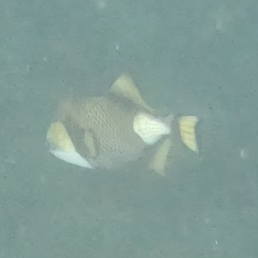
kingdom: Animalia
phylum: Chordata
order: Tetraodontiformes
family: Balistidae
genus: Balistoides
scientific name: Balistoides viridescens
